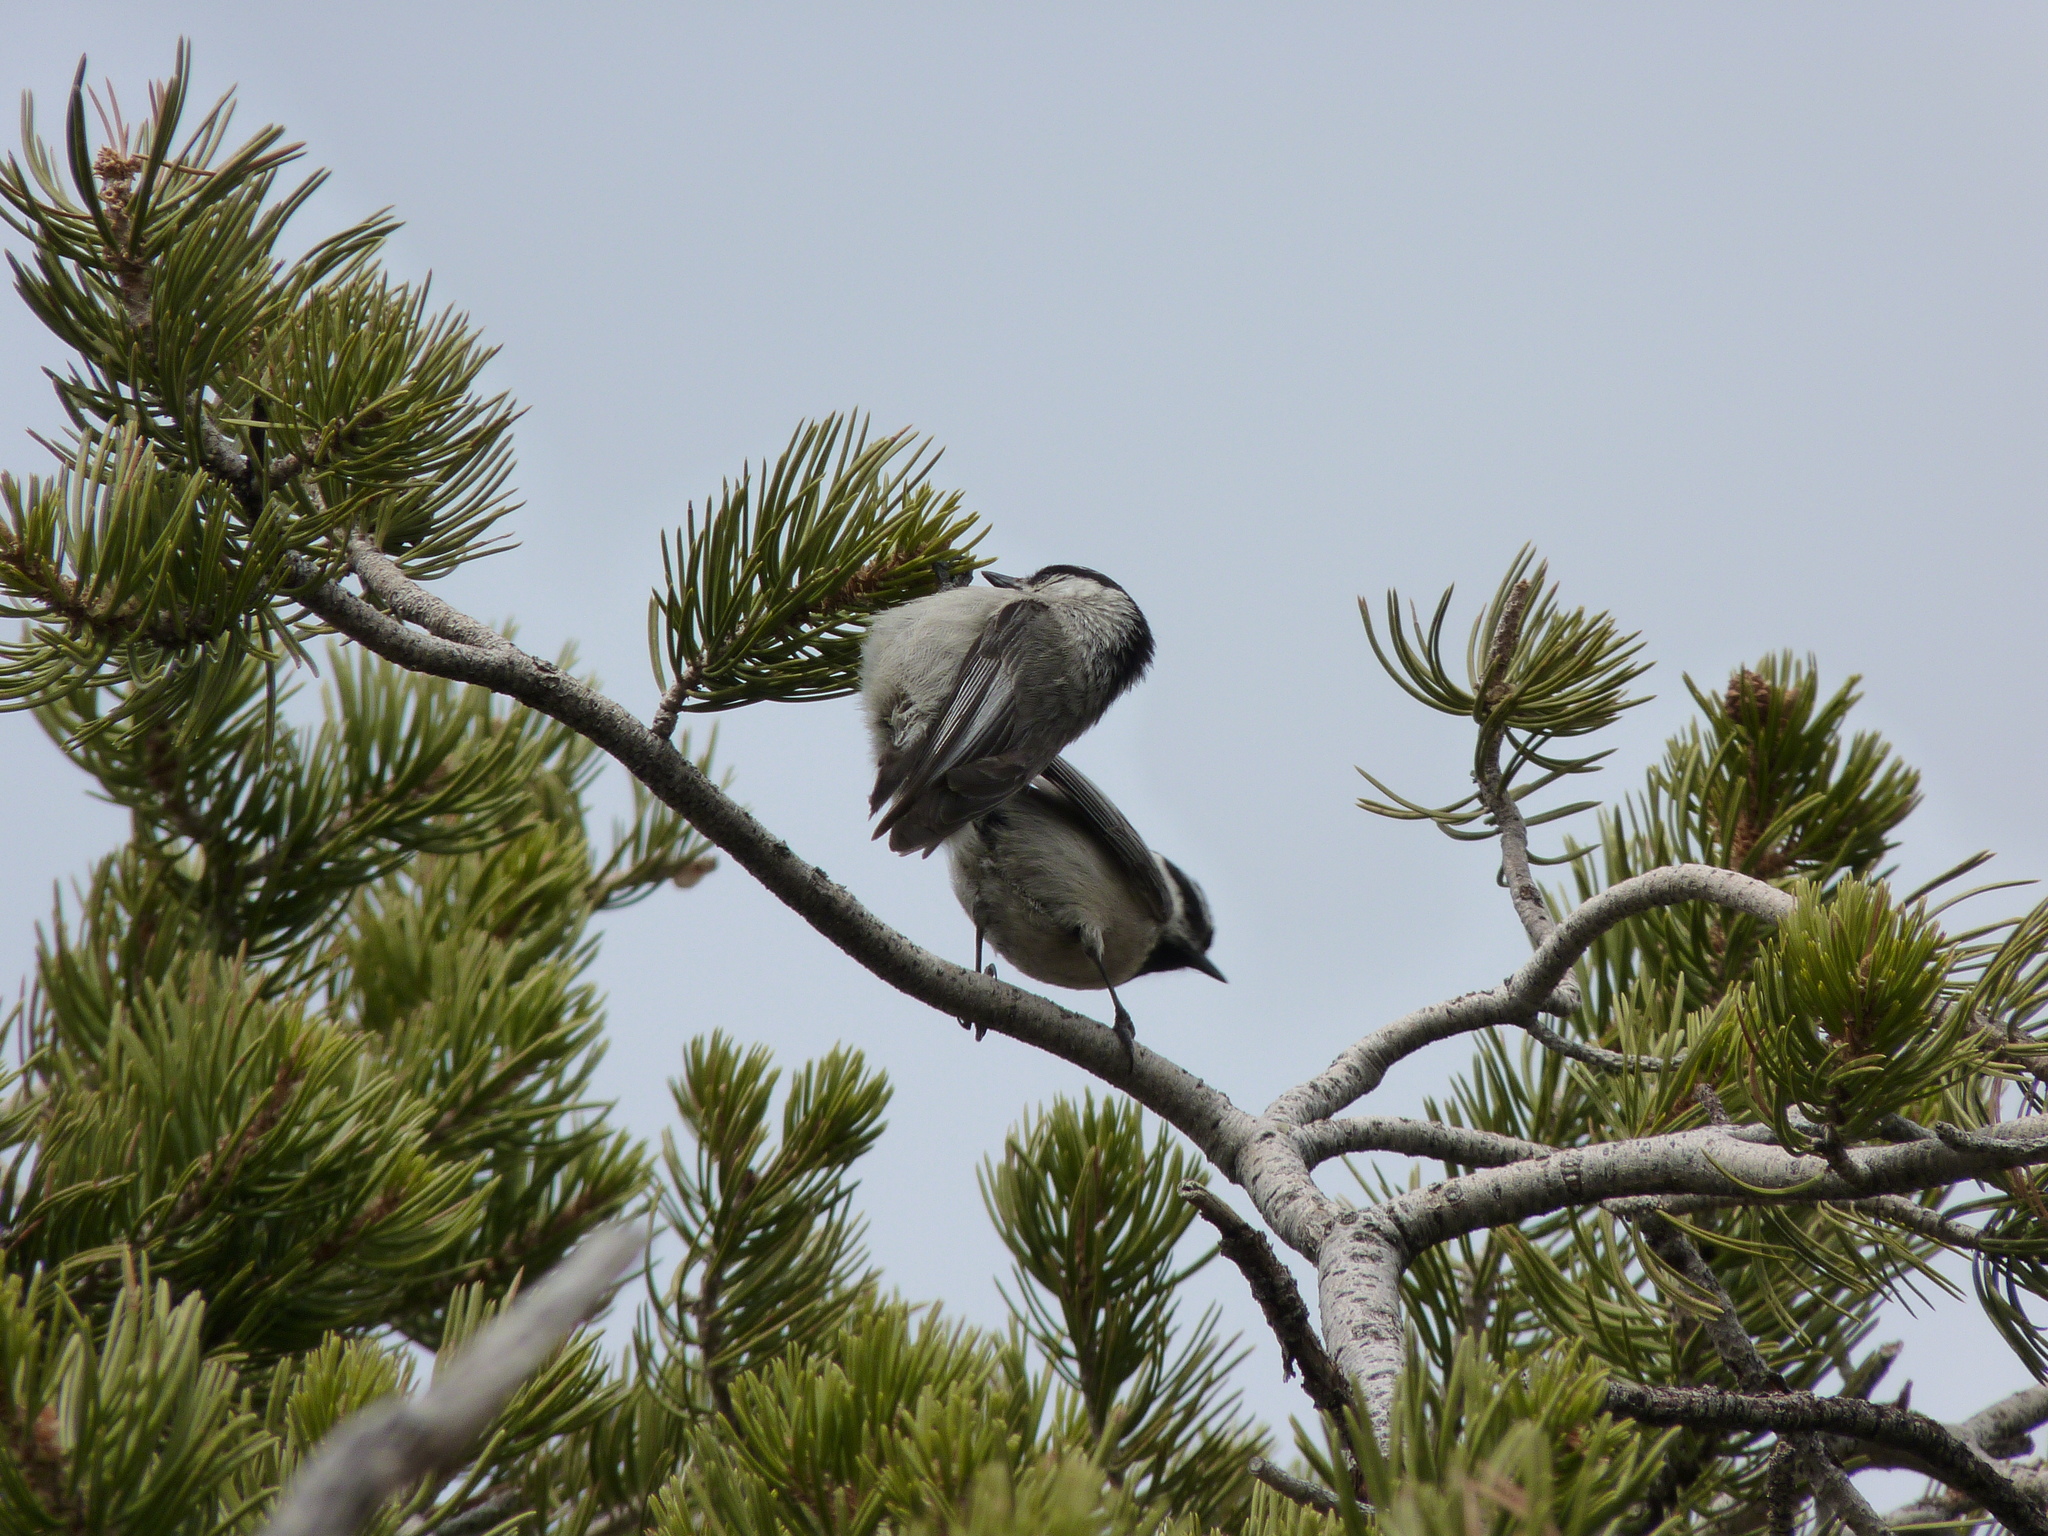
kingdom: Animalia
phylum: Chordata
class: Aves
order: Passeriformes
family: Paridae
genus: Poecile
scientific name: Poecile gambeli
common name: Mountain chickadee
